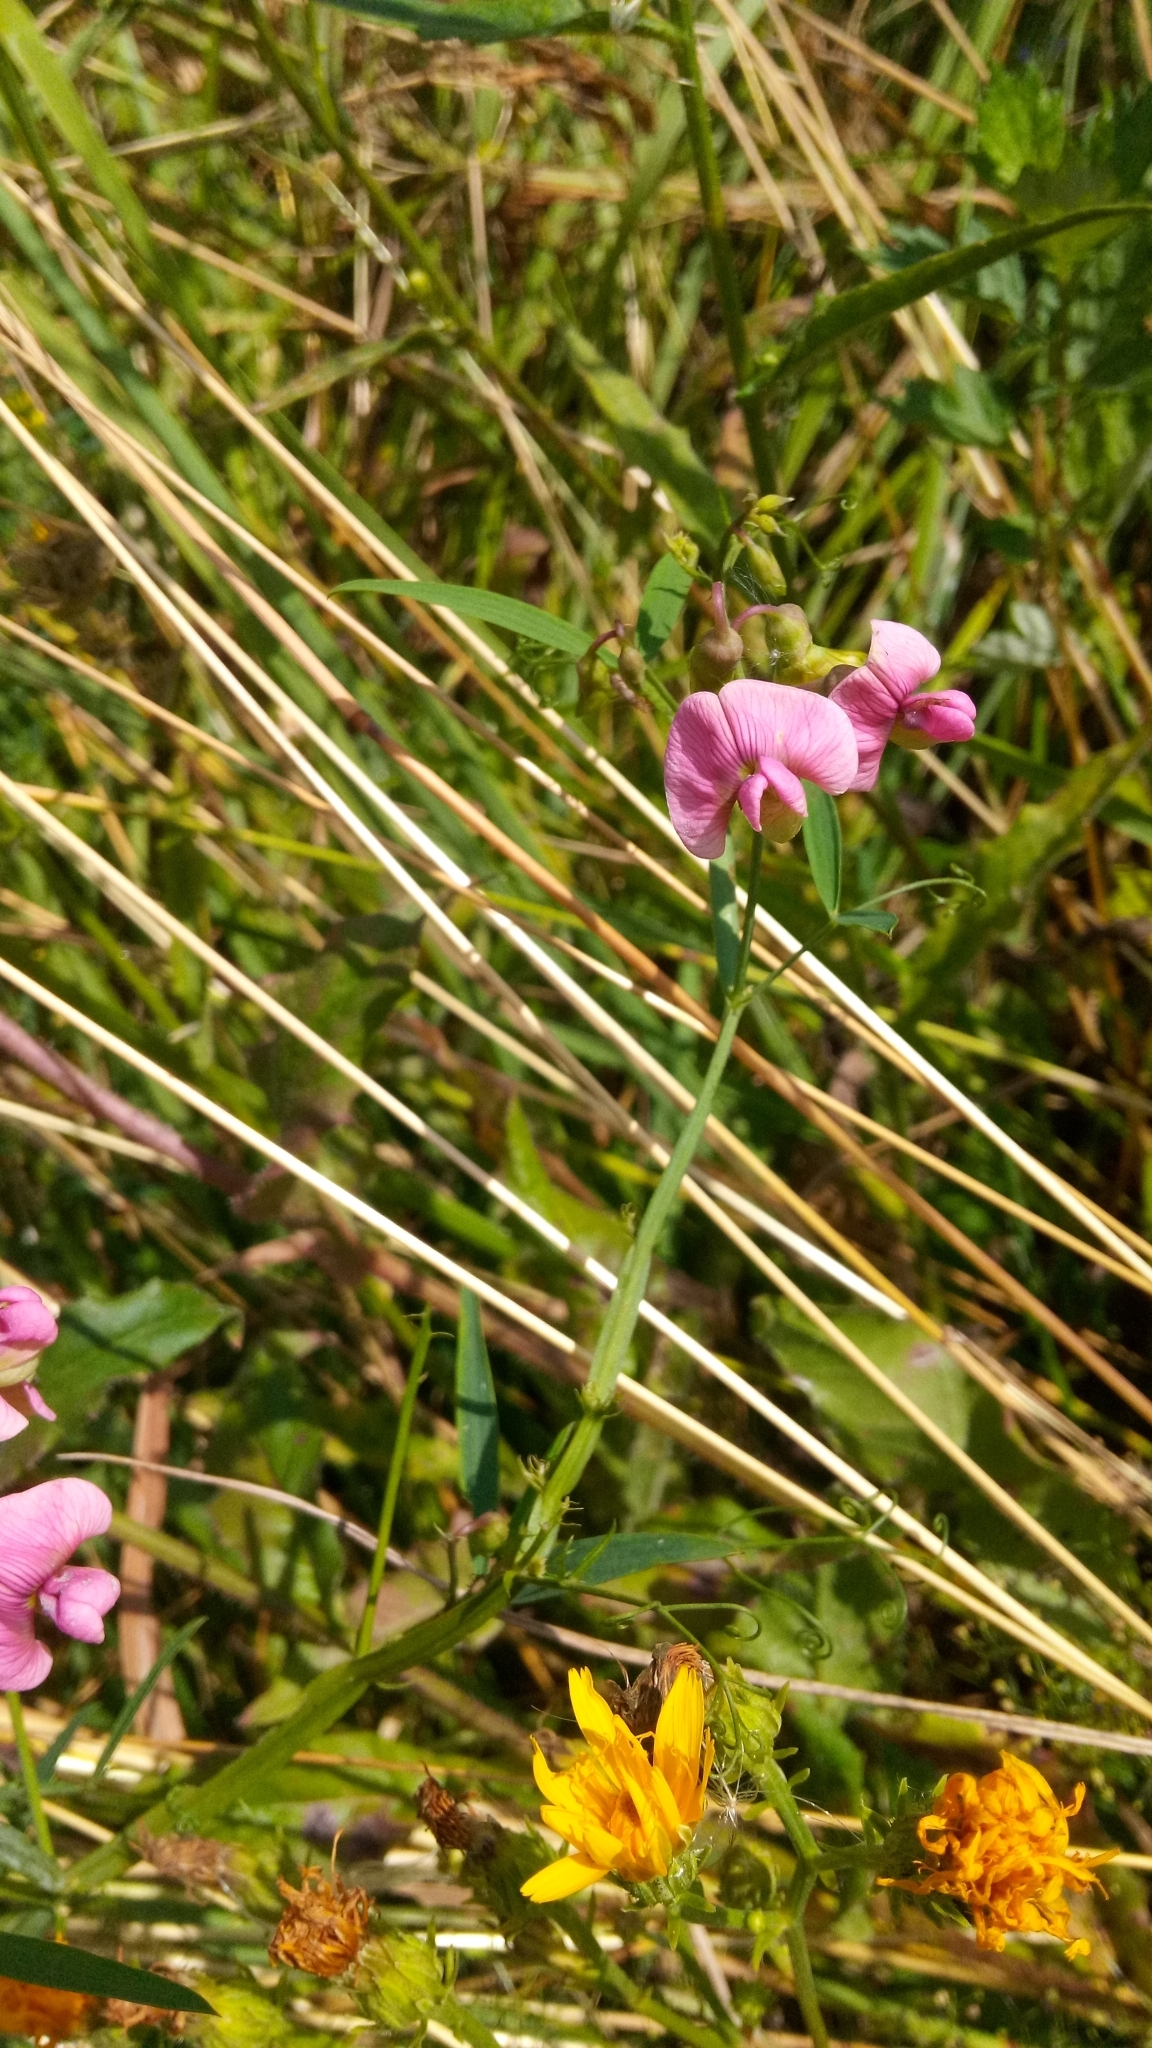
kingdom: Plantae
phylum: Tracheophyta
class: Magnoliopsida
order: Fabales
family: Fabaceae
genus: Lathyrus
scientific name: Lathyrus sylvestris
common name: Flat pea
